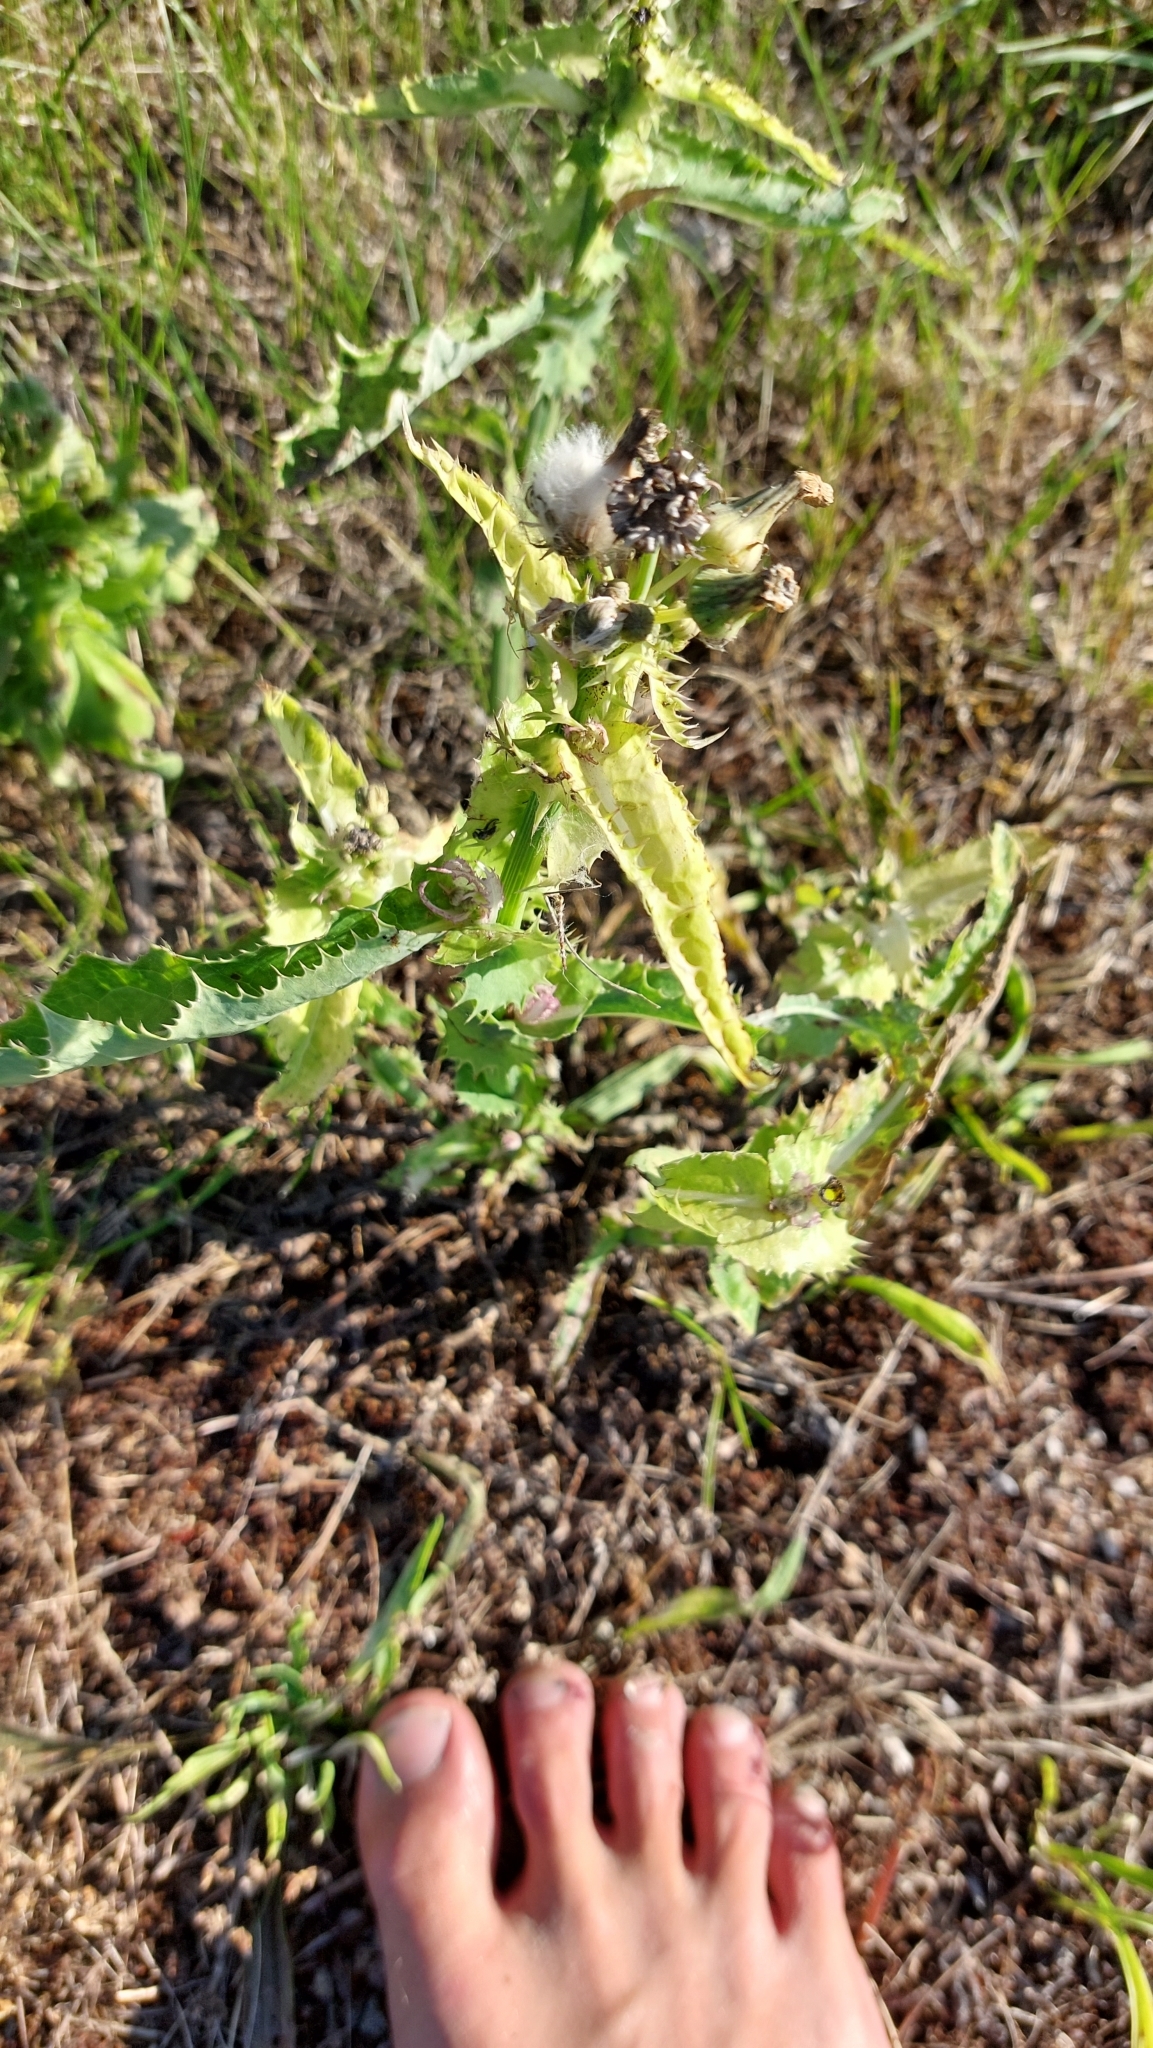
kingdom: Plantae
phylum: Tracheophyta
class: Magnoliopsida
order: Asterales
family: Asteraceae
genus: Sonchus
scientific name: Sonchus asper
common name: Prickly sow-thistle
